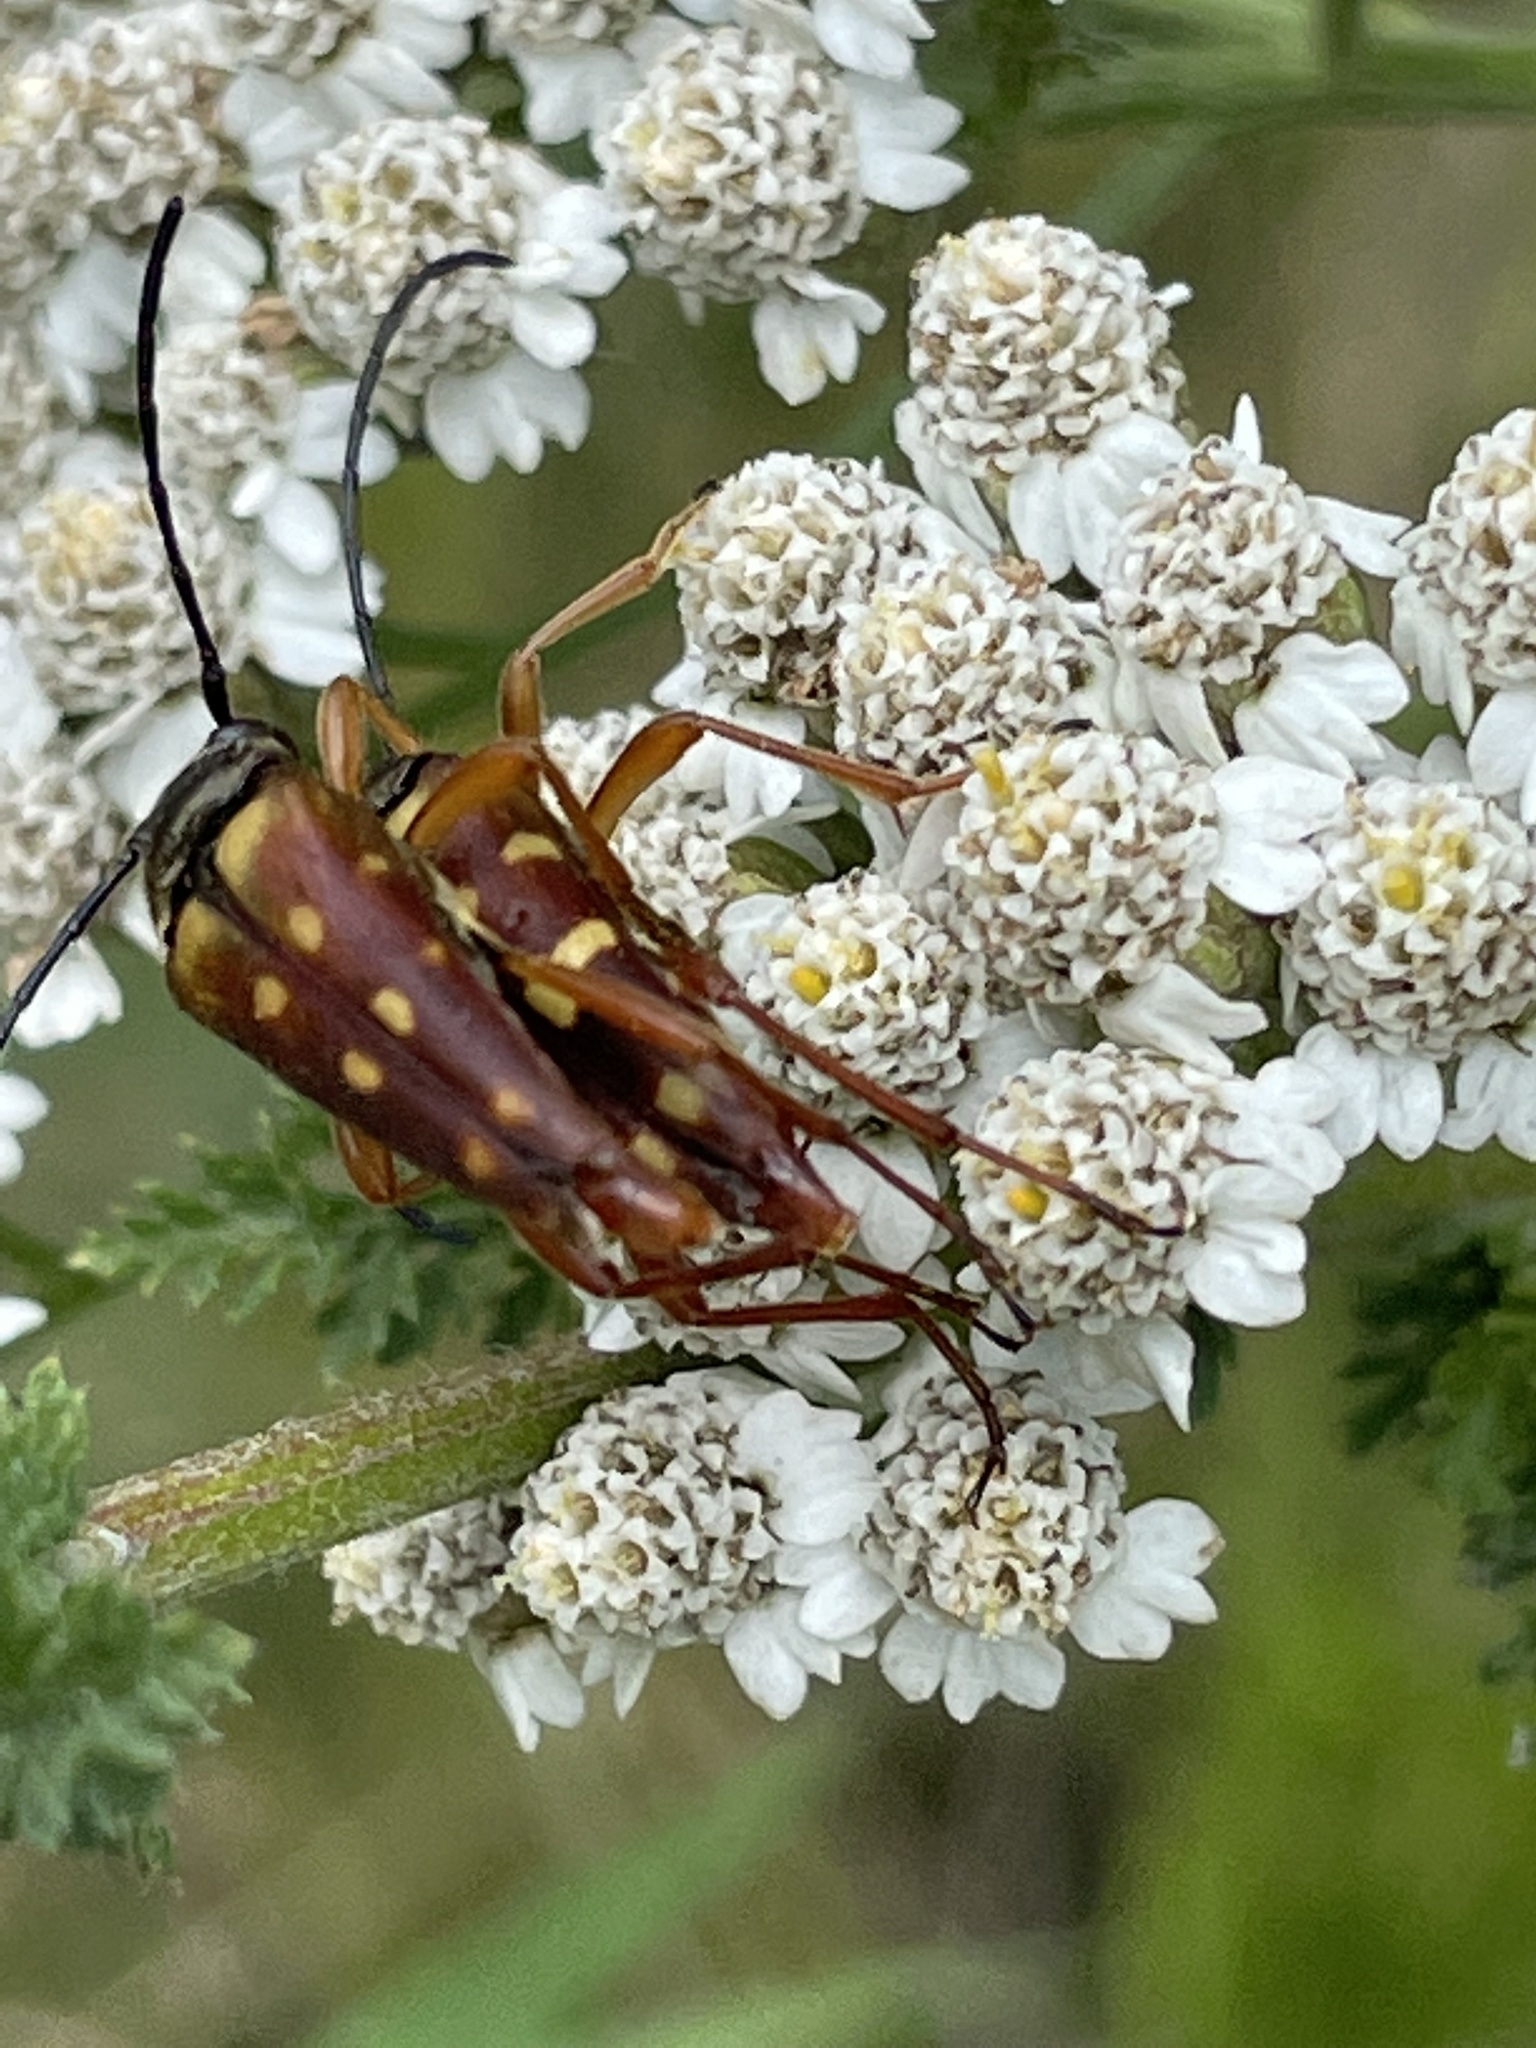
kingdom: Animalia
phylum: Arthropoda
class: Insecta
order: Coleoptera
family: Cerambycidae
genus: Typocerus
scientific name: Typocerus velutinus
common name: Banded longhorn beetle
